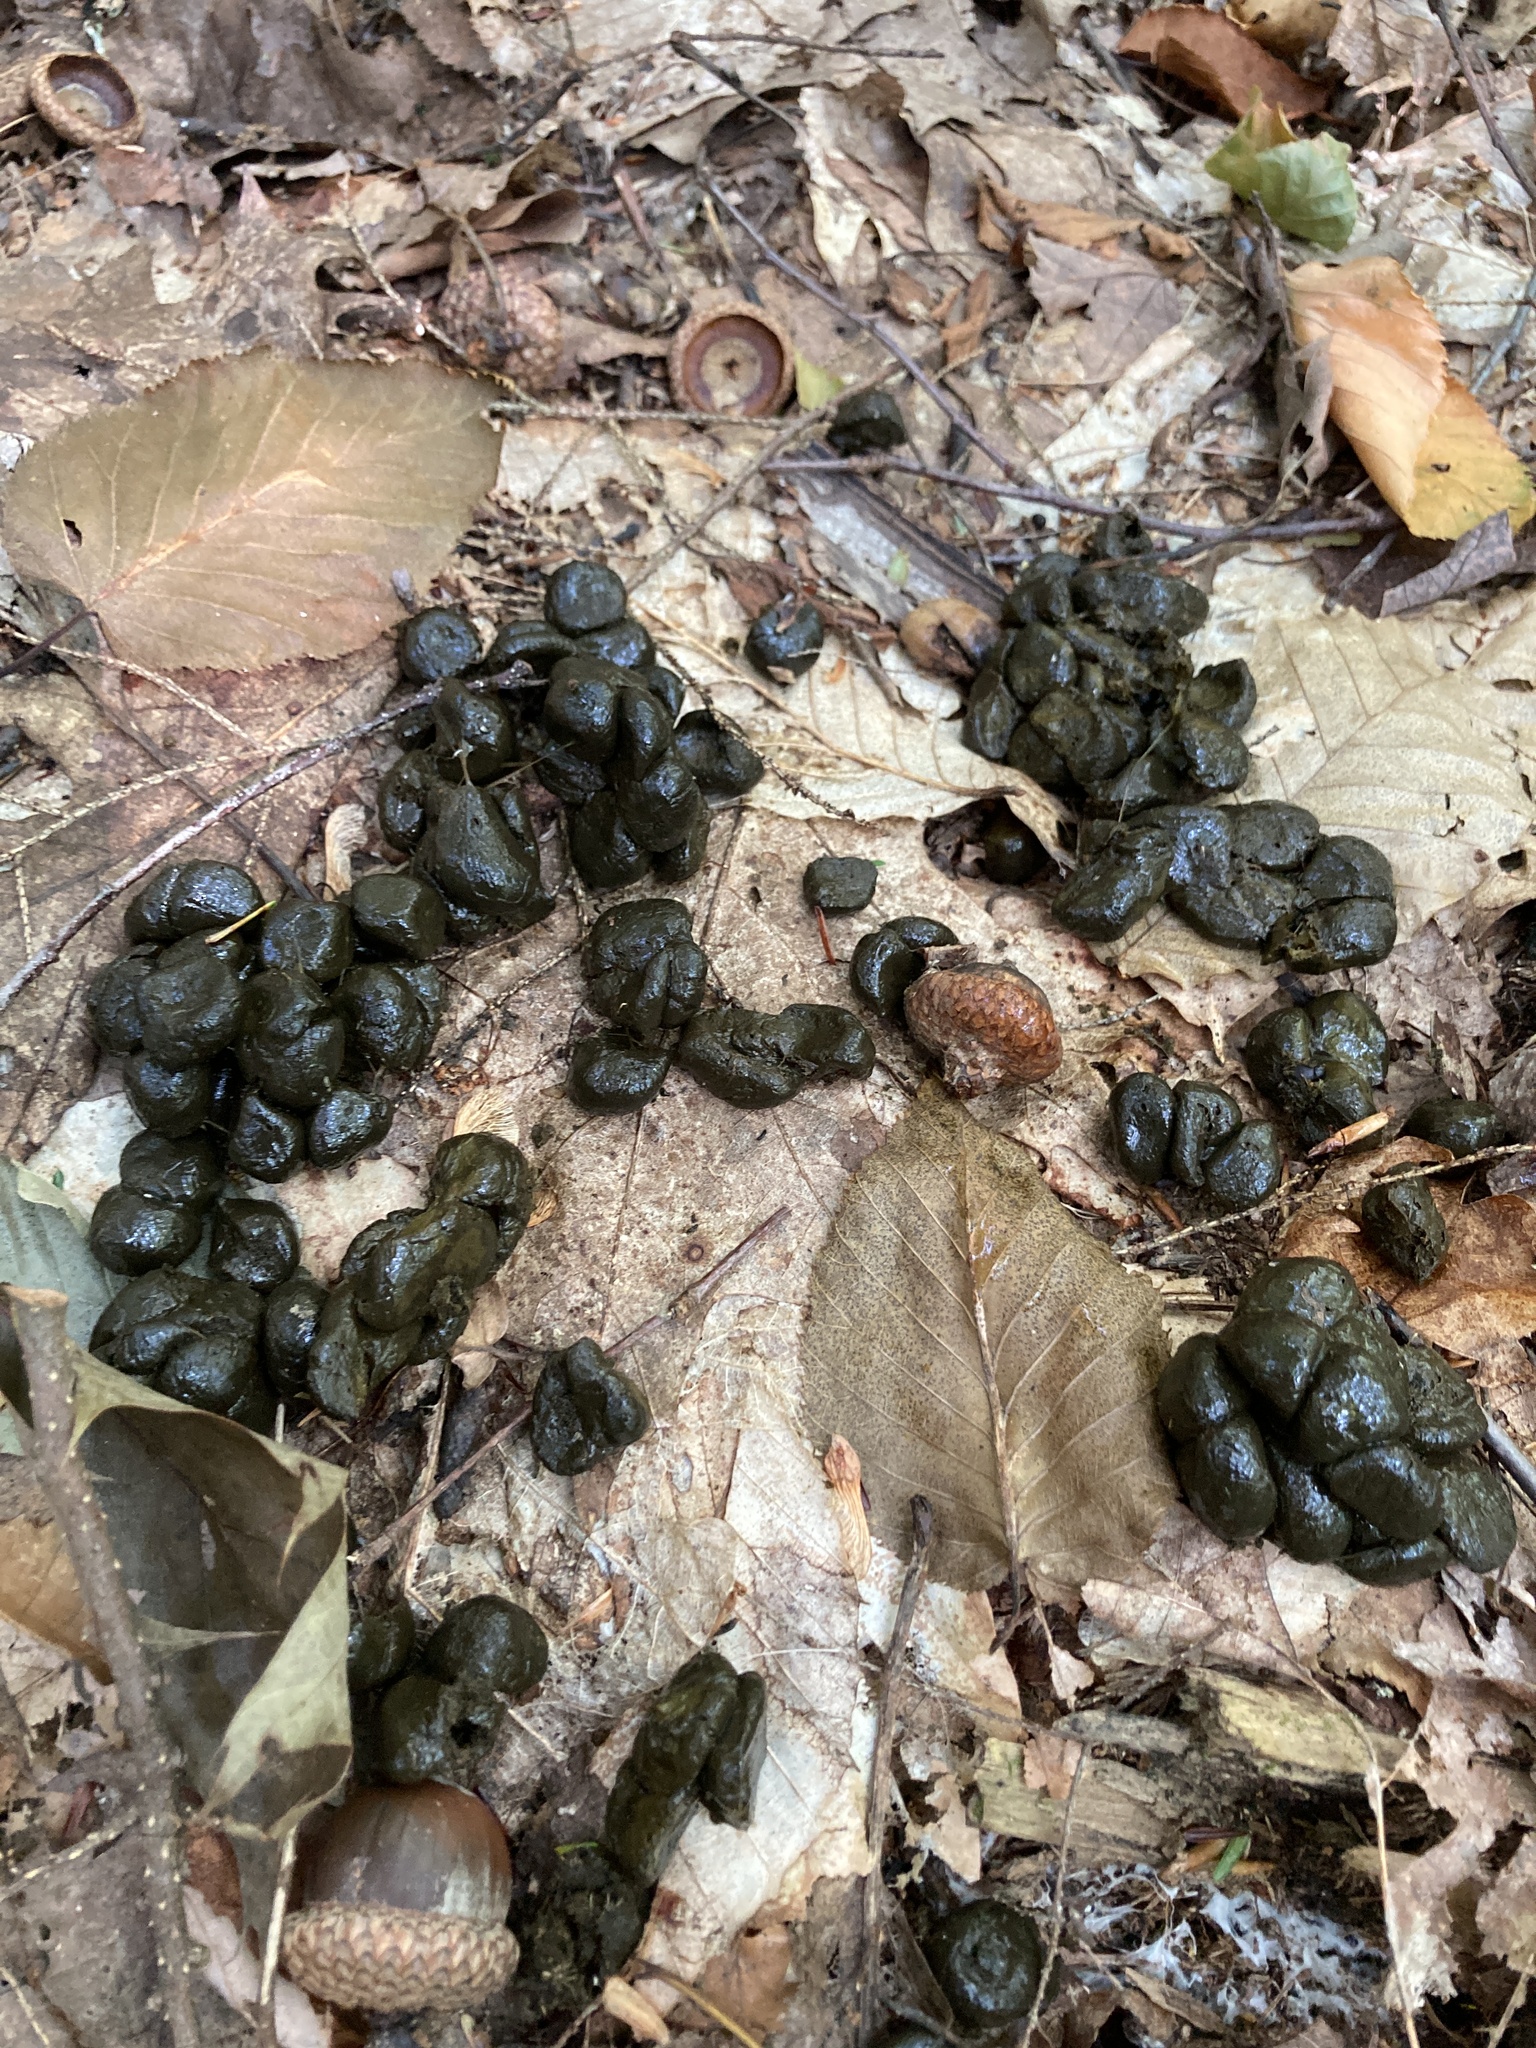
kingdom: Animalia
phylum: Chordata
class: Mammalia
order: Artiodactyla
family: Cervidae
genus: Odocoileus
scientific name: Odocoileus virginianus
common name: White-tailed deer
